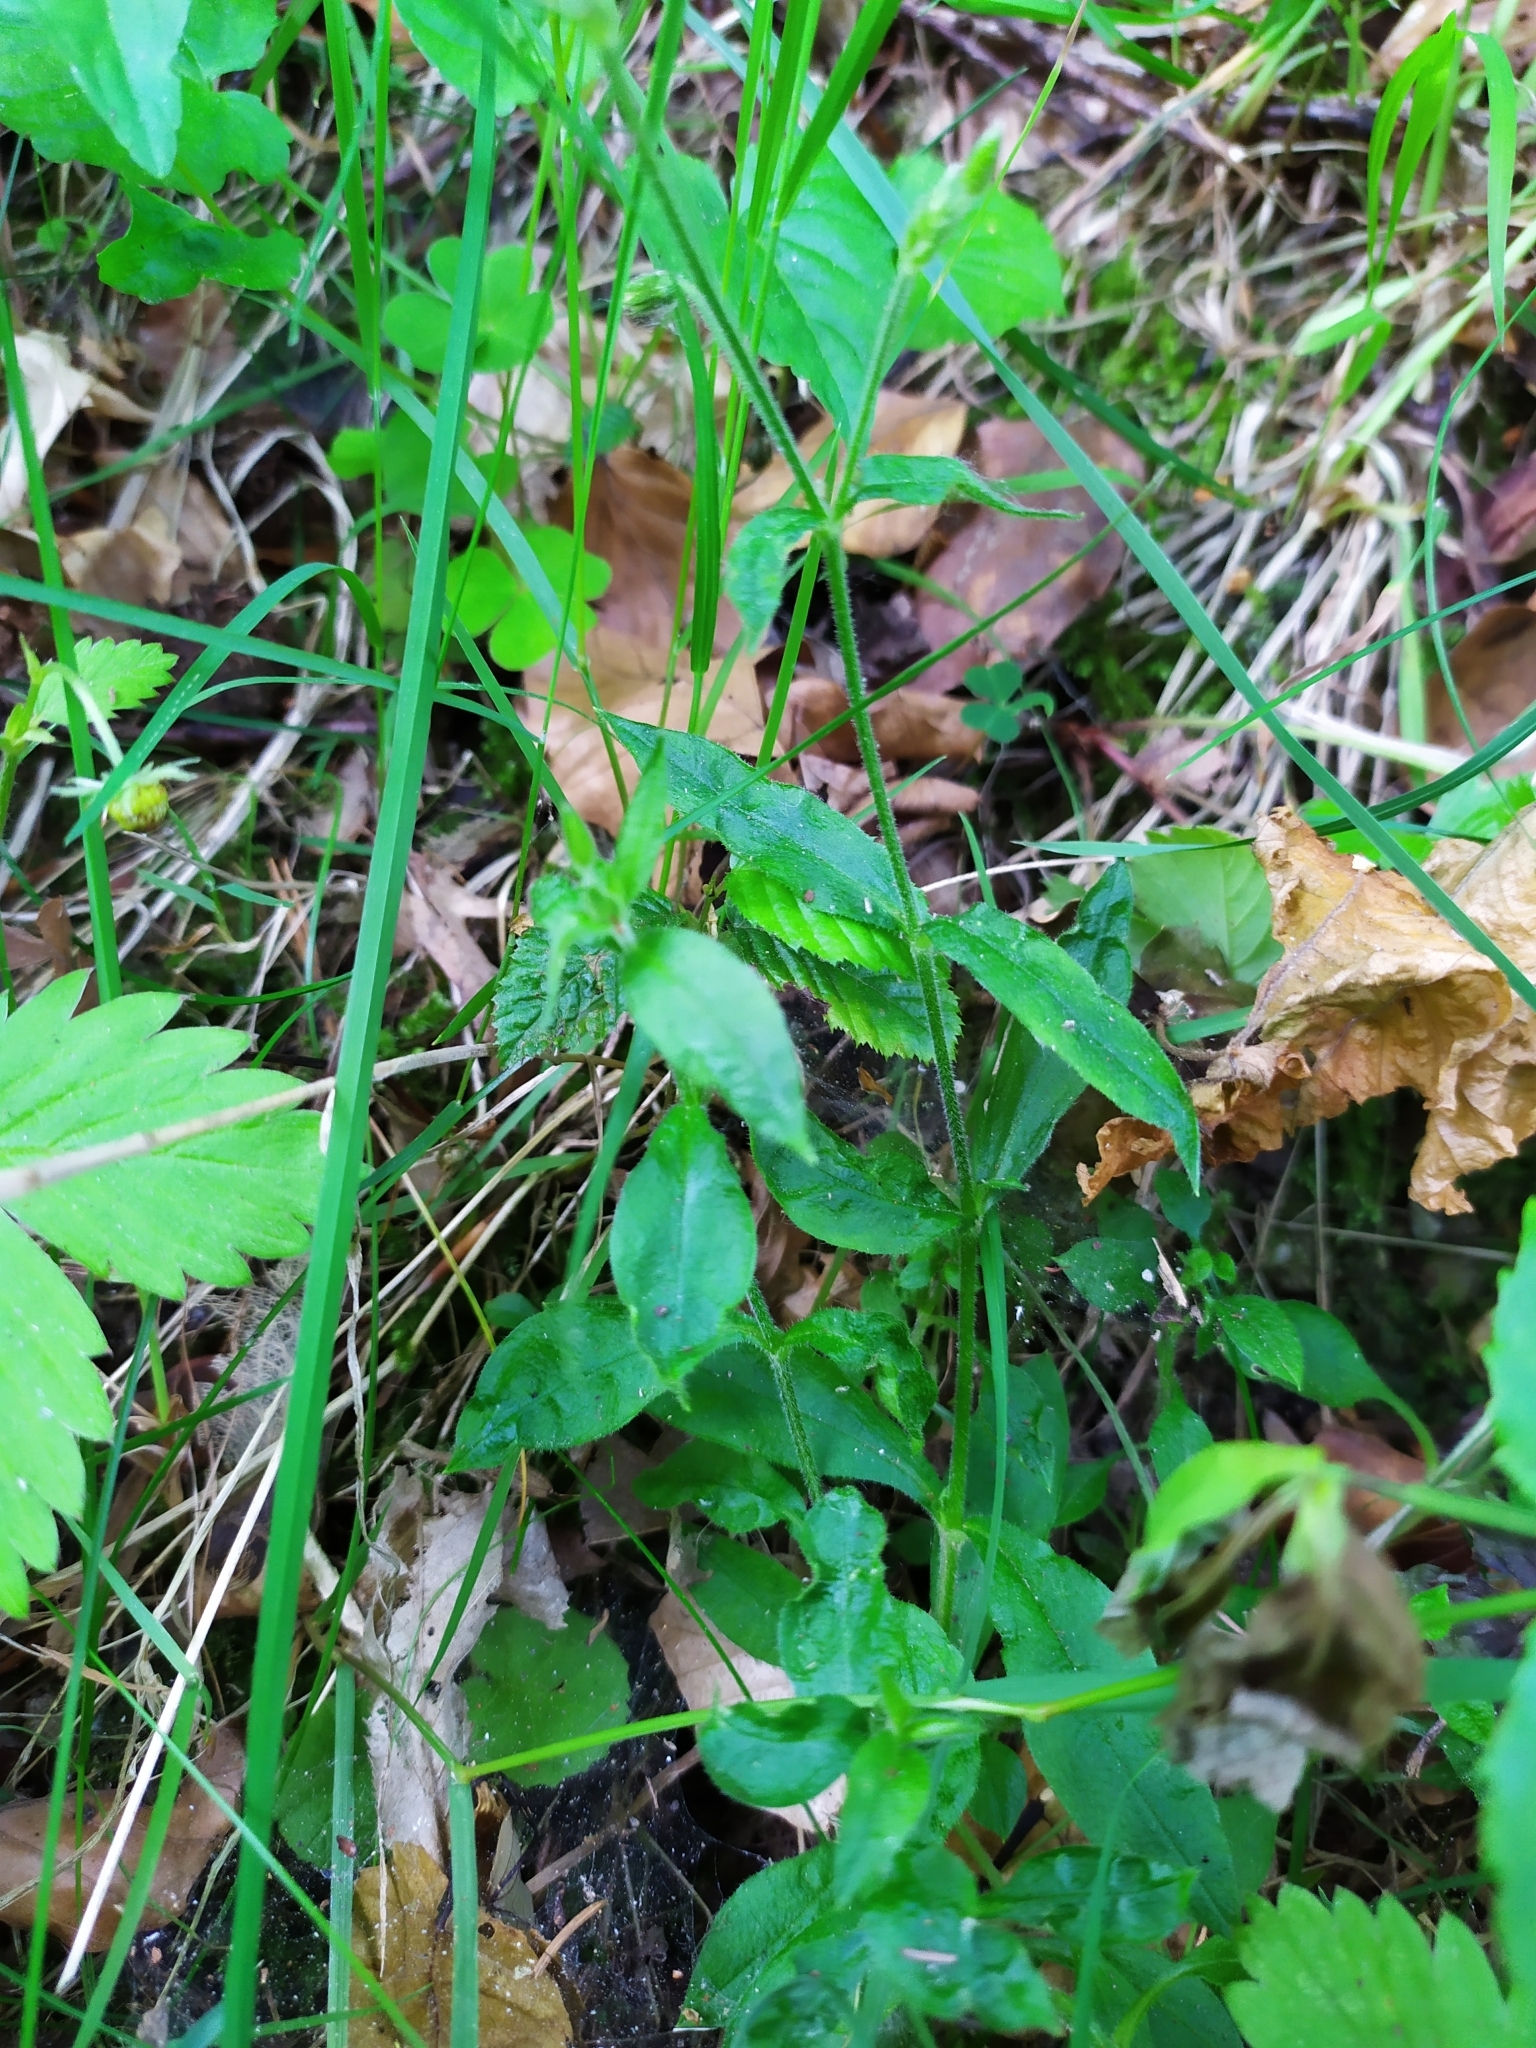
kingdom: Plantae
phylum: Tracheophyta
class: Magnoliopsida
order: Caryophyllales
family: Caryophyllaceae
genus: Stellaria
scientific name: Stellaria nemorum
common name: Wood stitchwort
